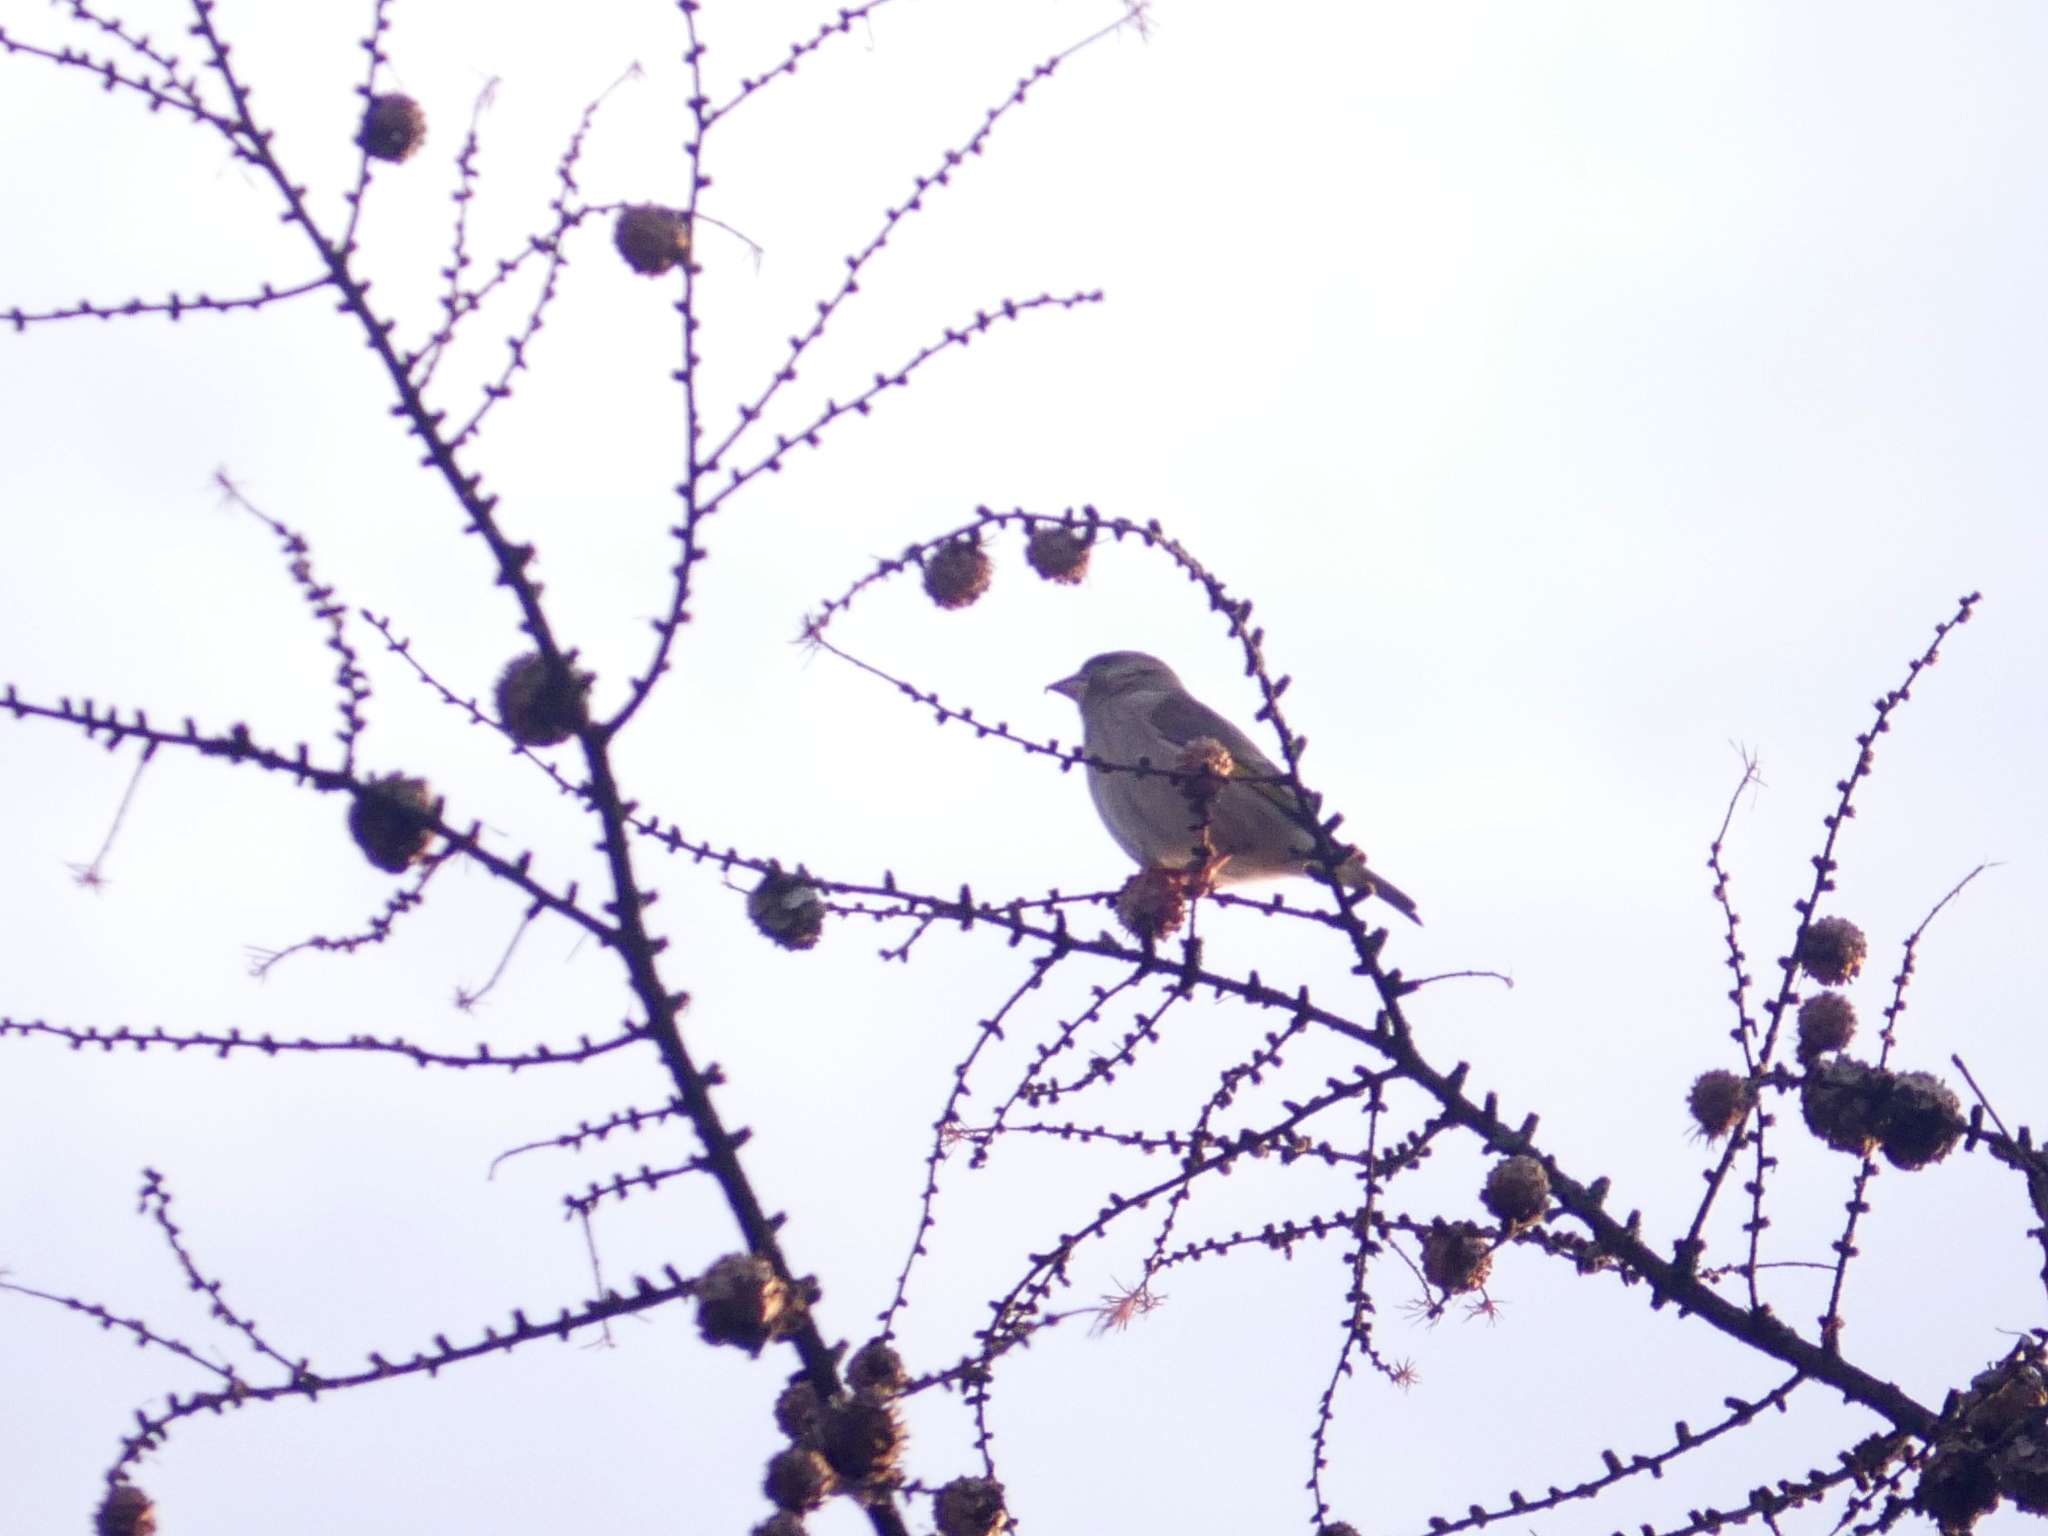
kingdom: Plantae
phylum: Tracheophyta
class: Liliopsida
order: Poales
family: Poaceae
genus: Chloris
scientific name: Chloris chloris
